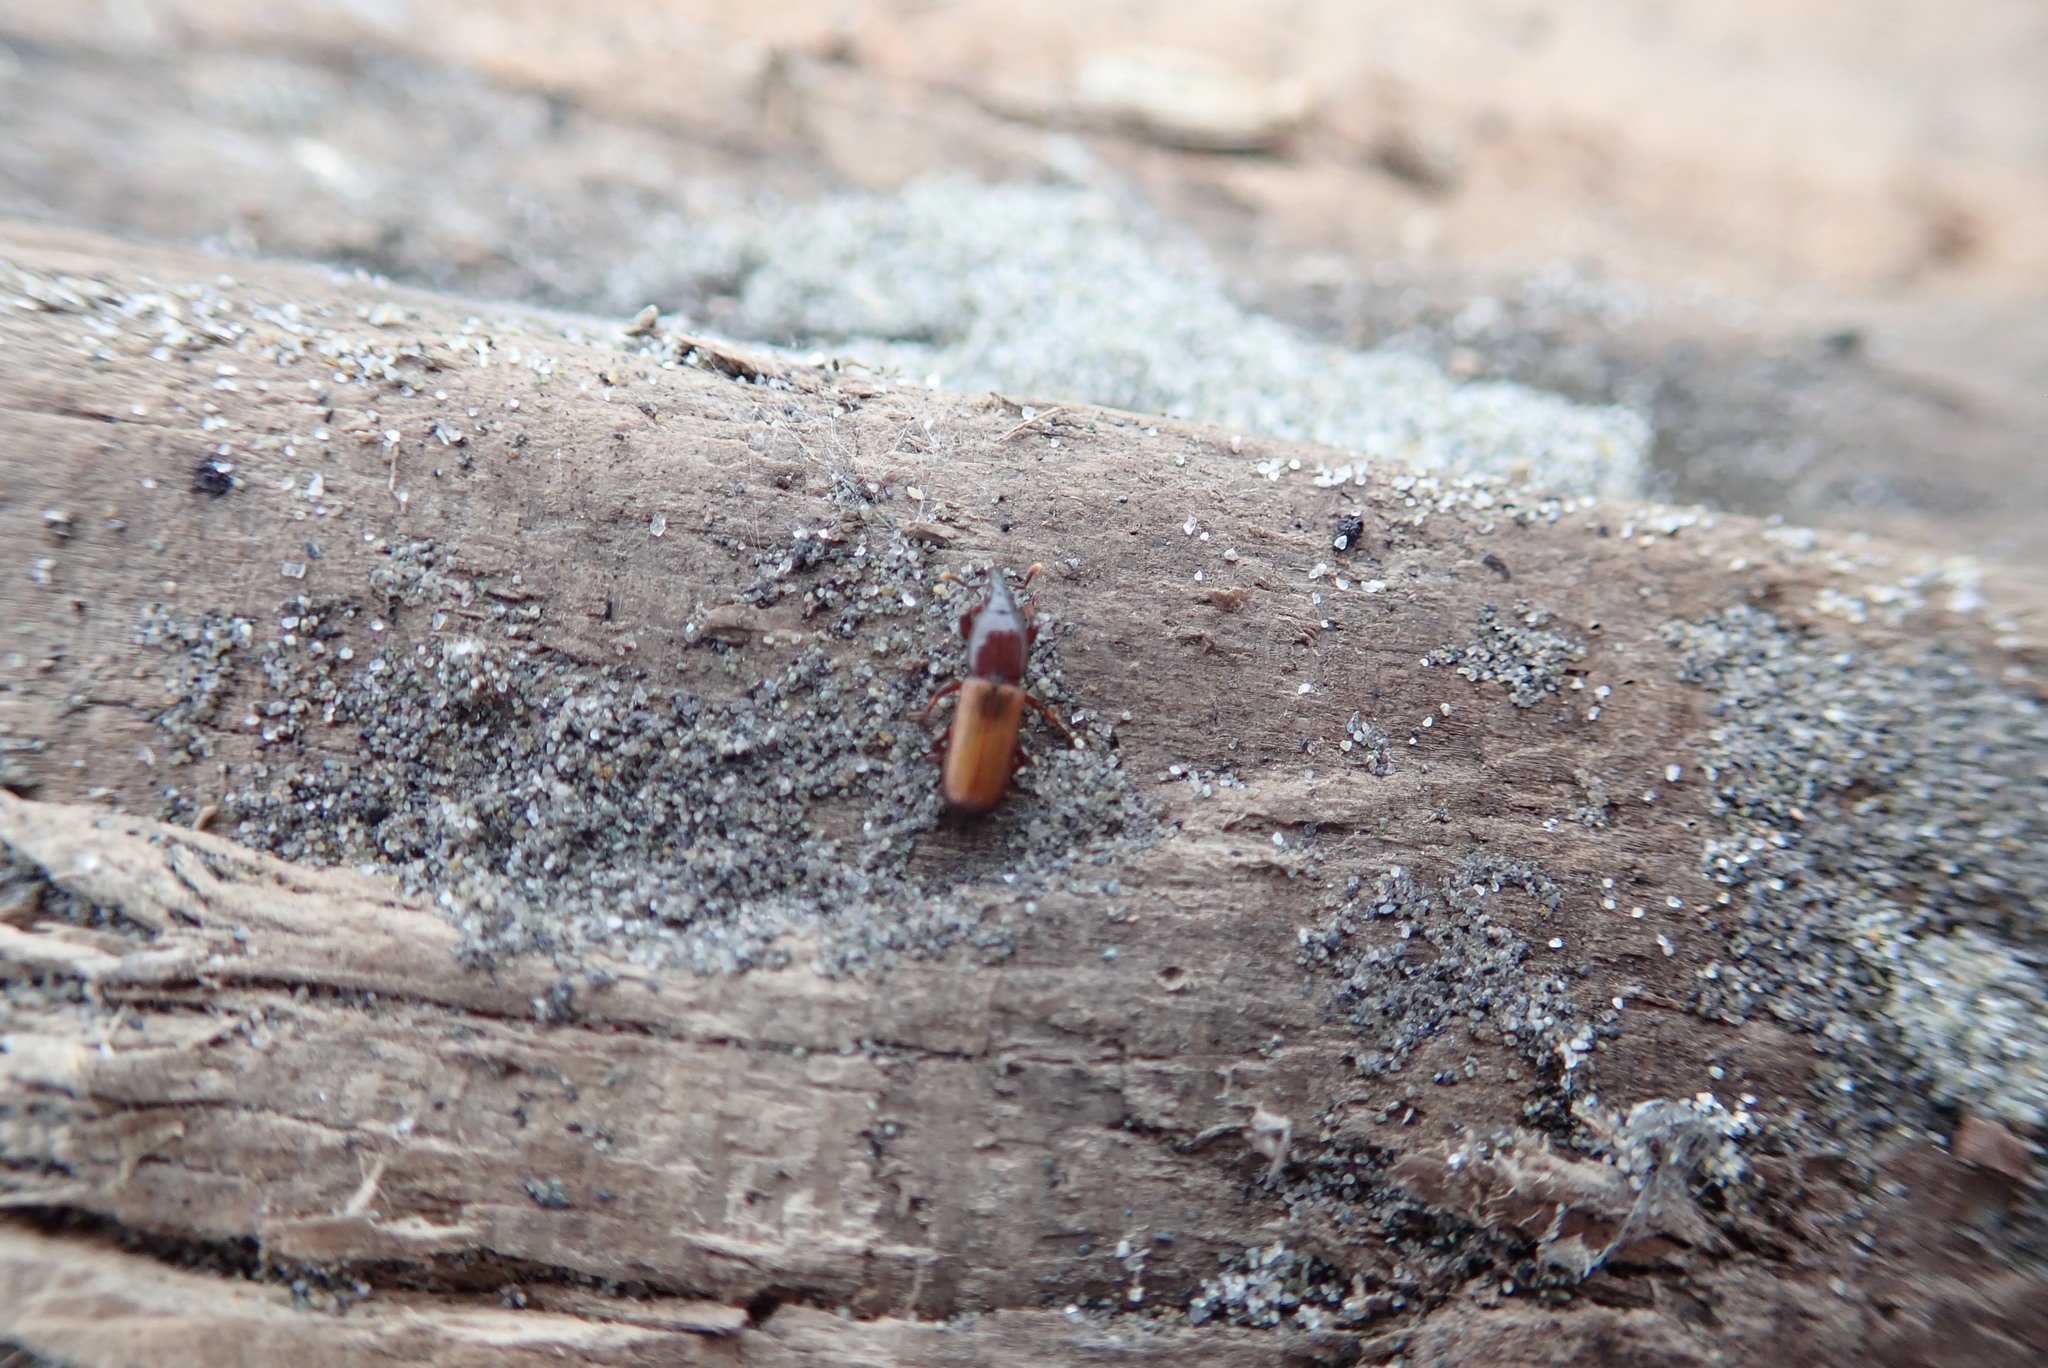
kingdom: Animalia
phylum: Arthropoda
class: Insecta
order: Coleoptera
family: Curculionidae
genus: Mesites
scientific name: Mesites pallidipennis
